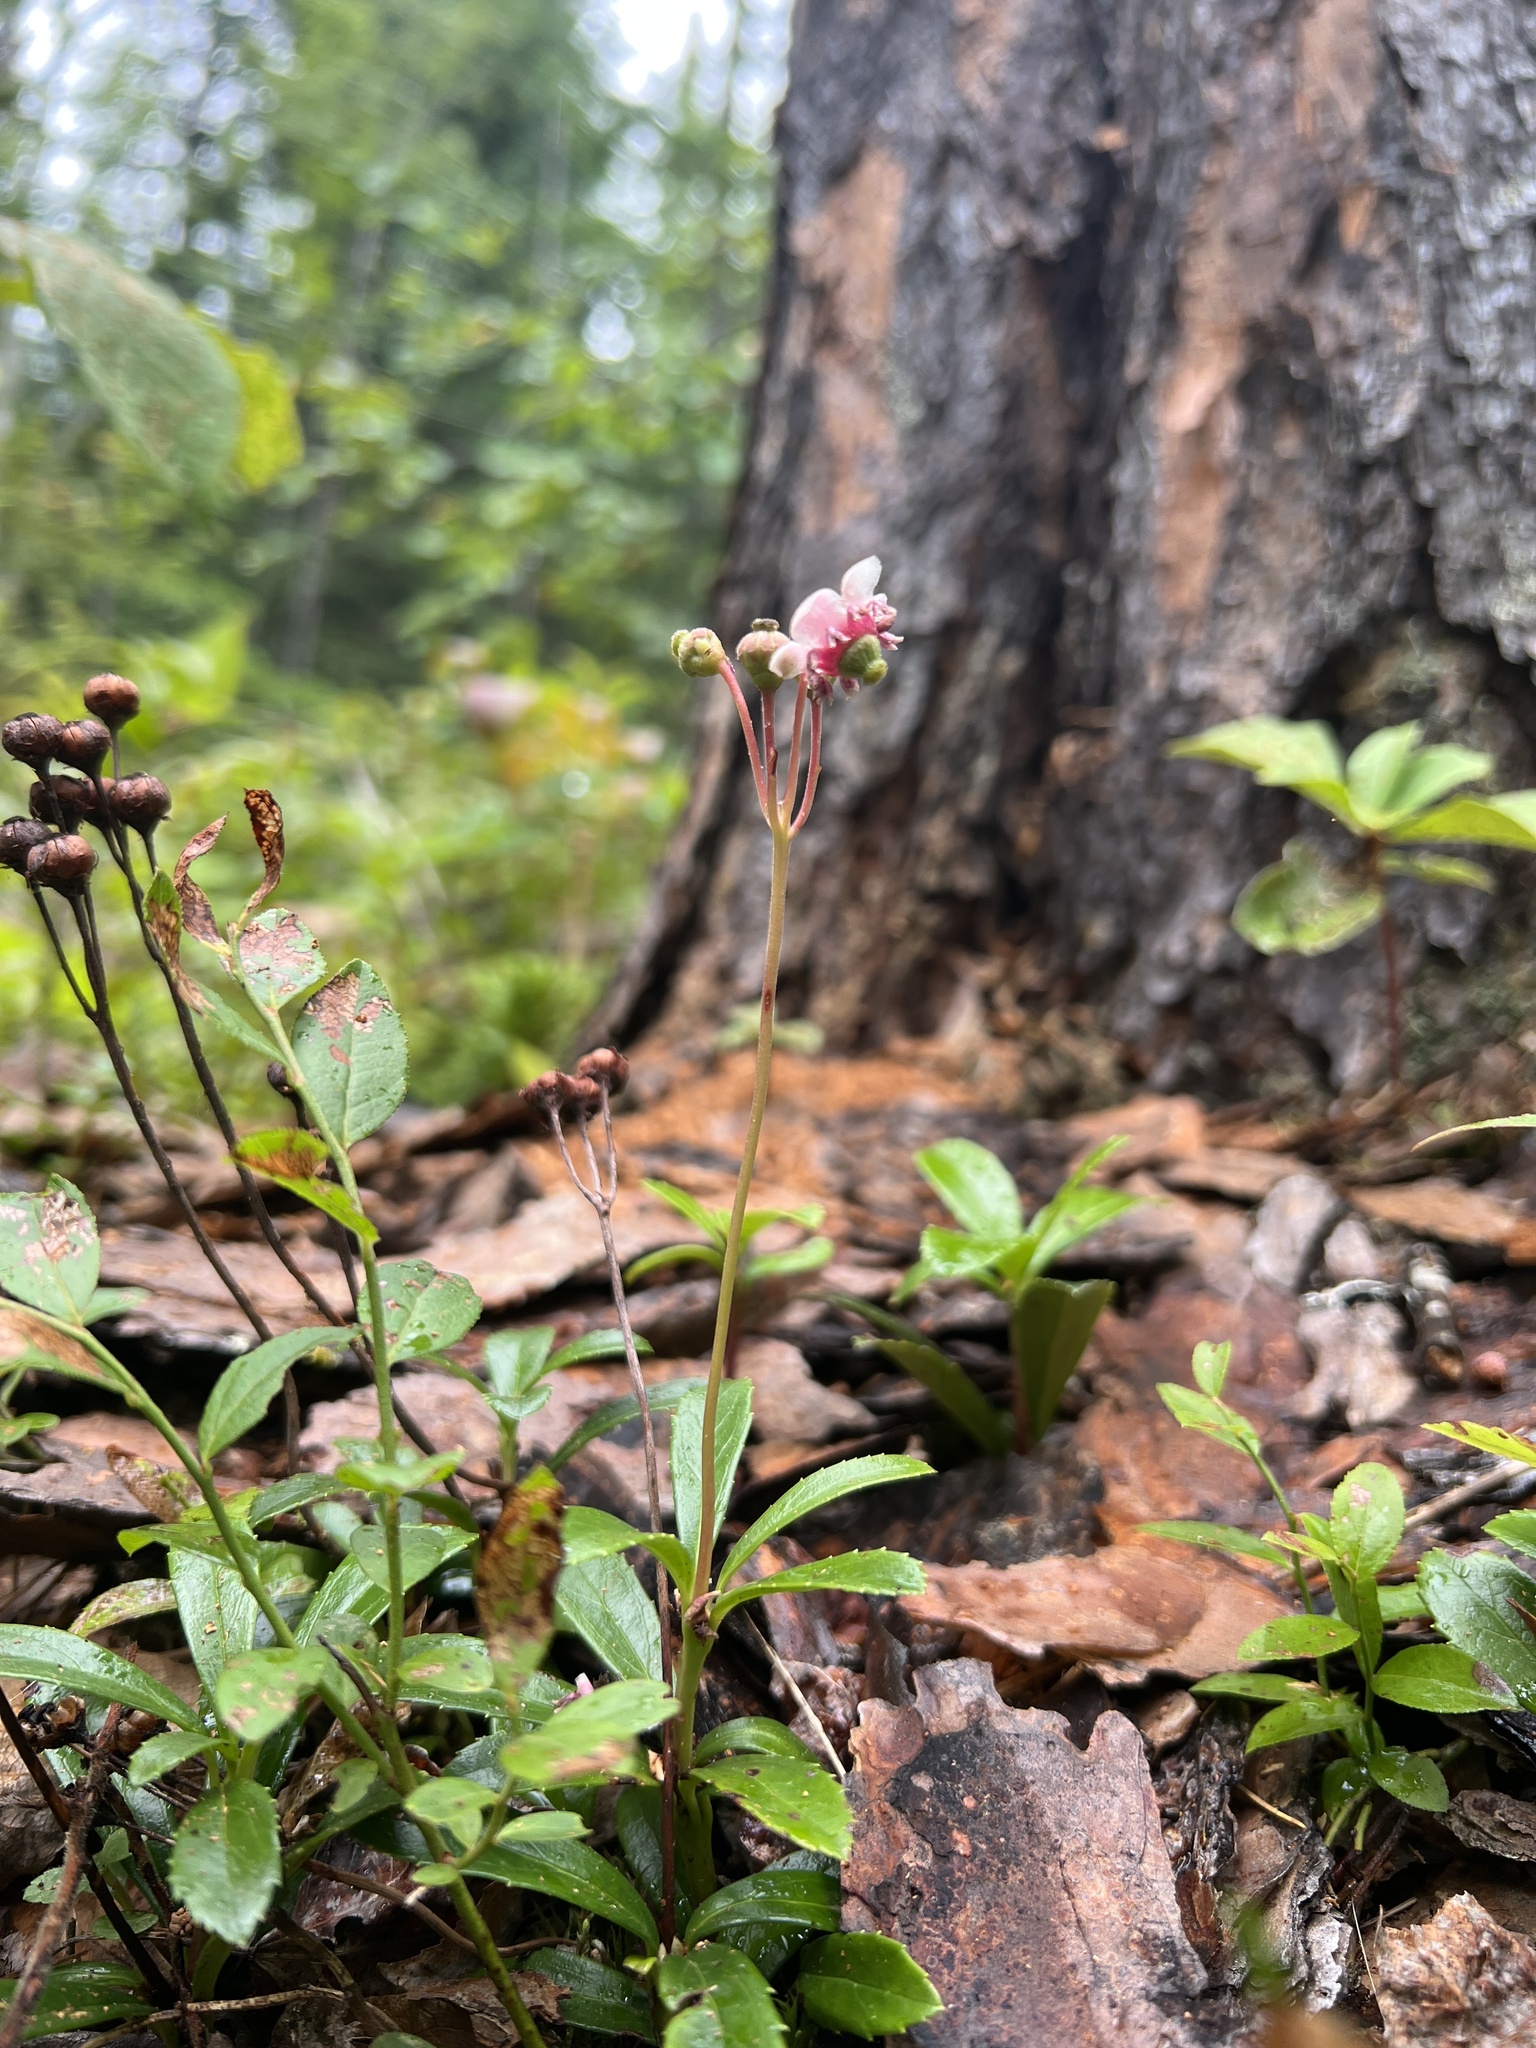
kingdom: Plantae
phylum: Tracheophyta
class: Magnoliopsida
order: Ericales
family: Ericaceae
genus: Chimaphila
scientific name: Chimaphila umbellata
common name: Pipsissewa
